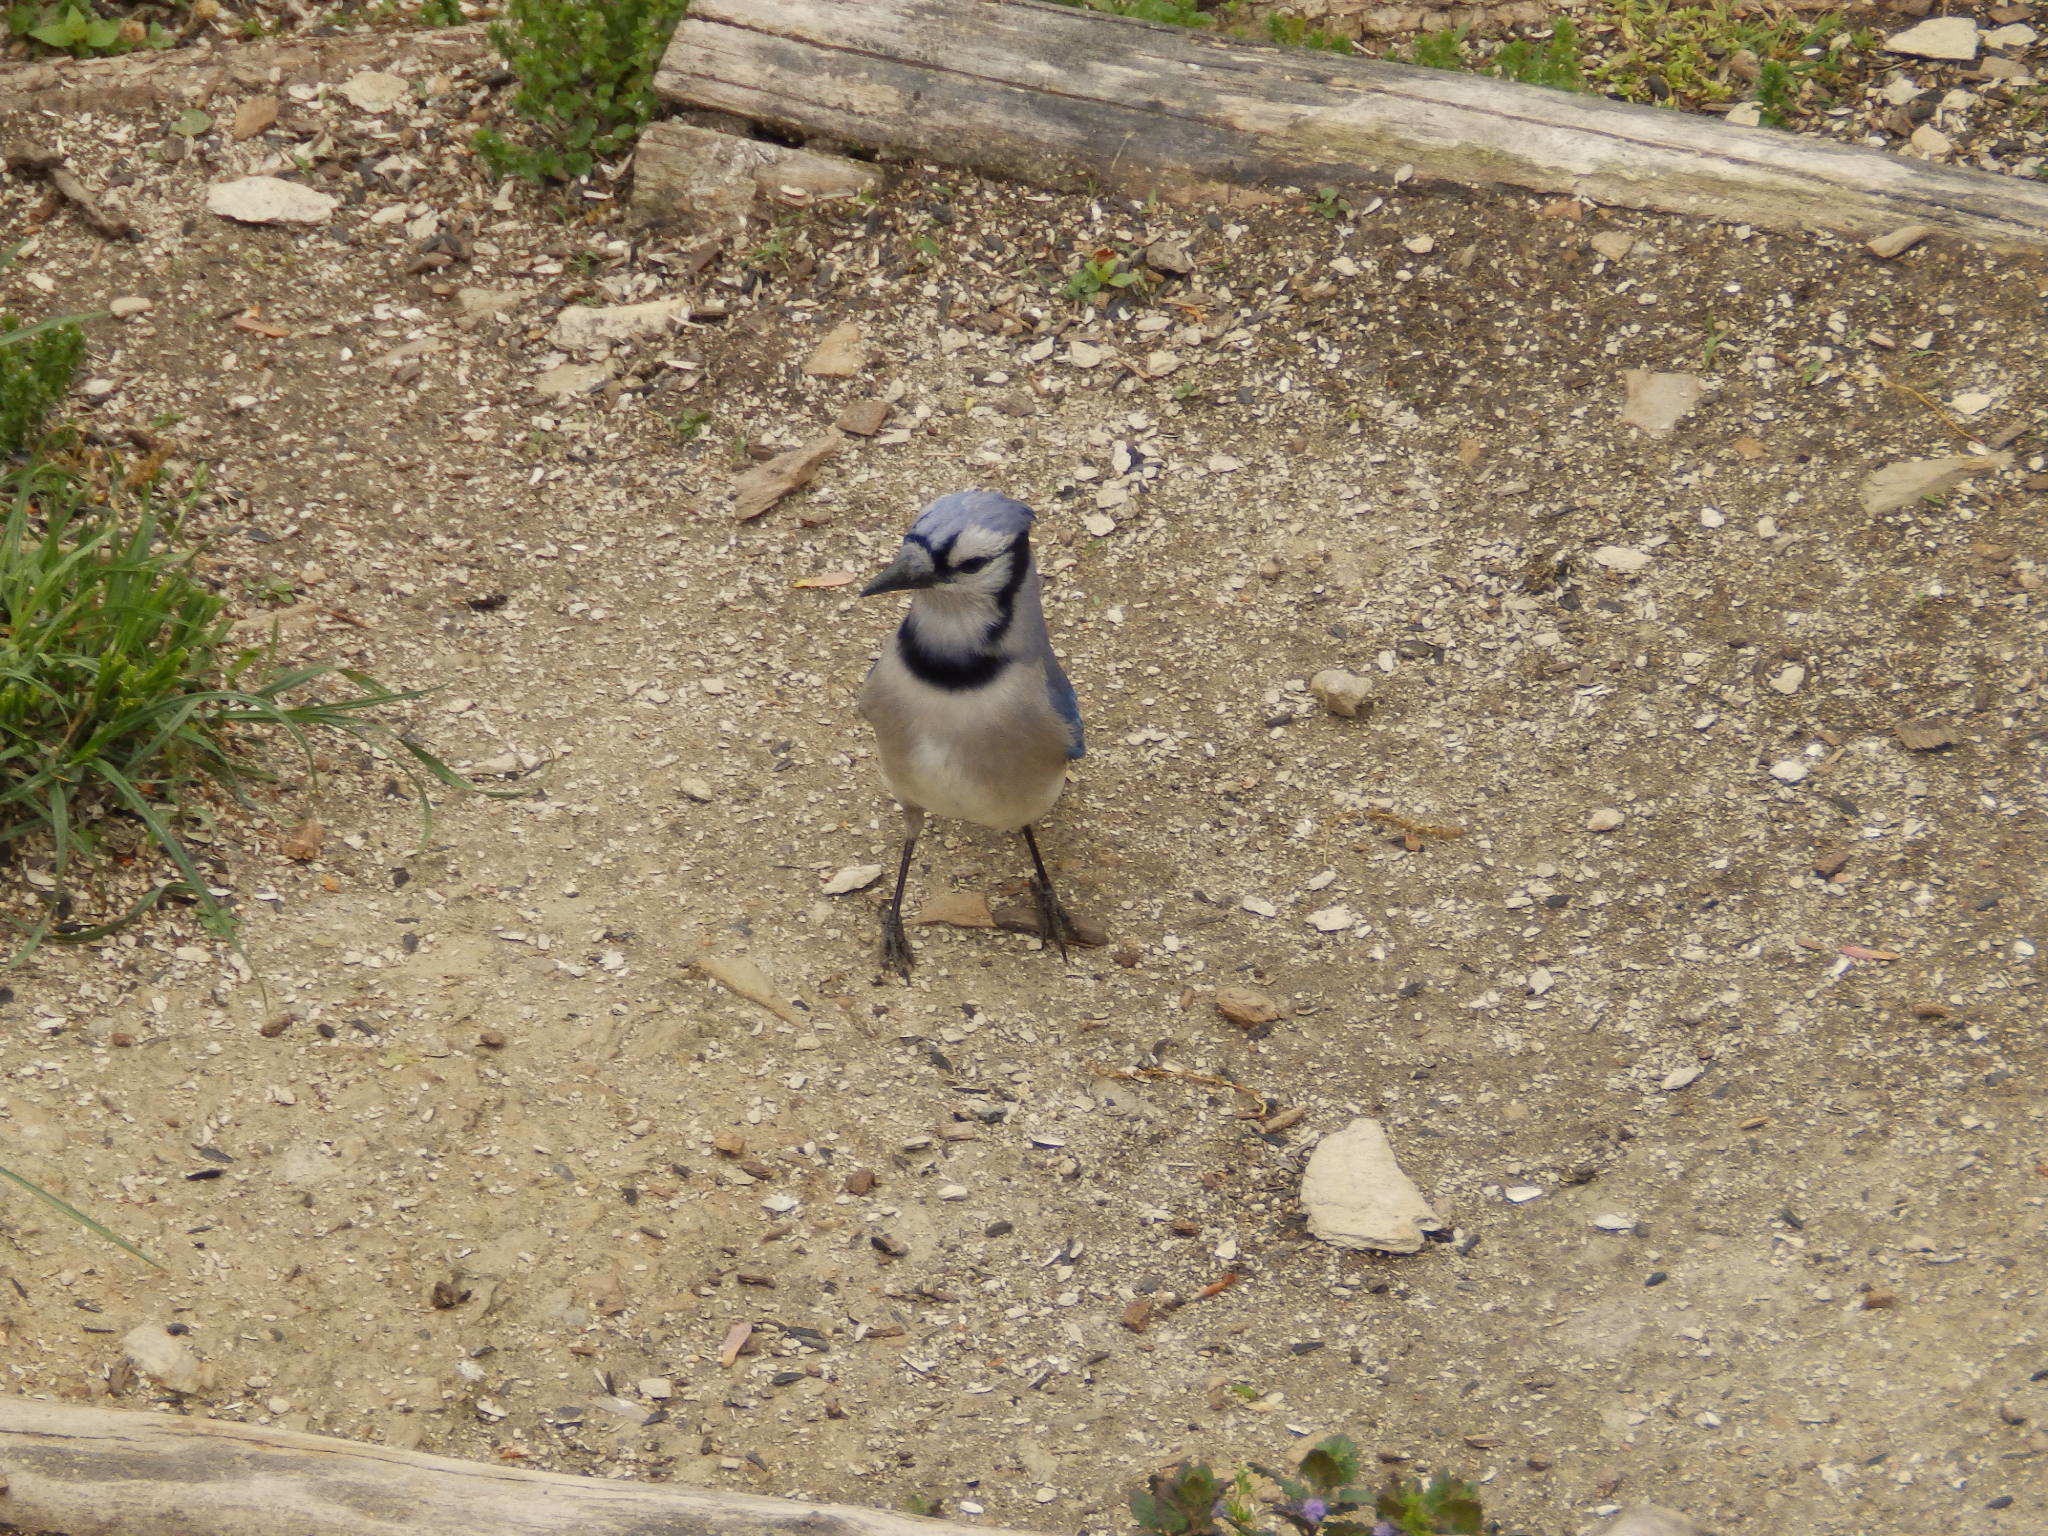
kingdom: Animalia
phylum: Chordata
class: Aves
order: Passeriformes
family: Corvidae
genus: Cyanocitta
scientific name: Cyanocitta cristata
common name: Blue jay
